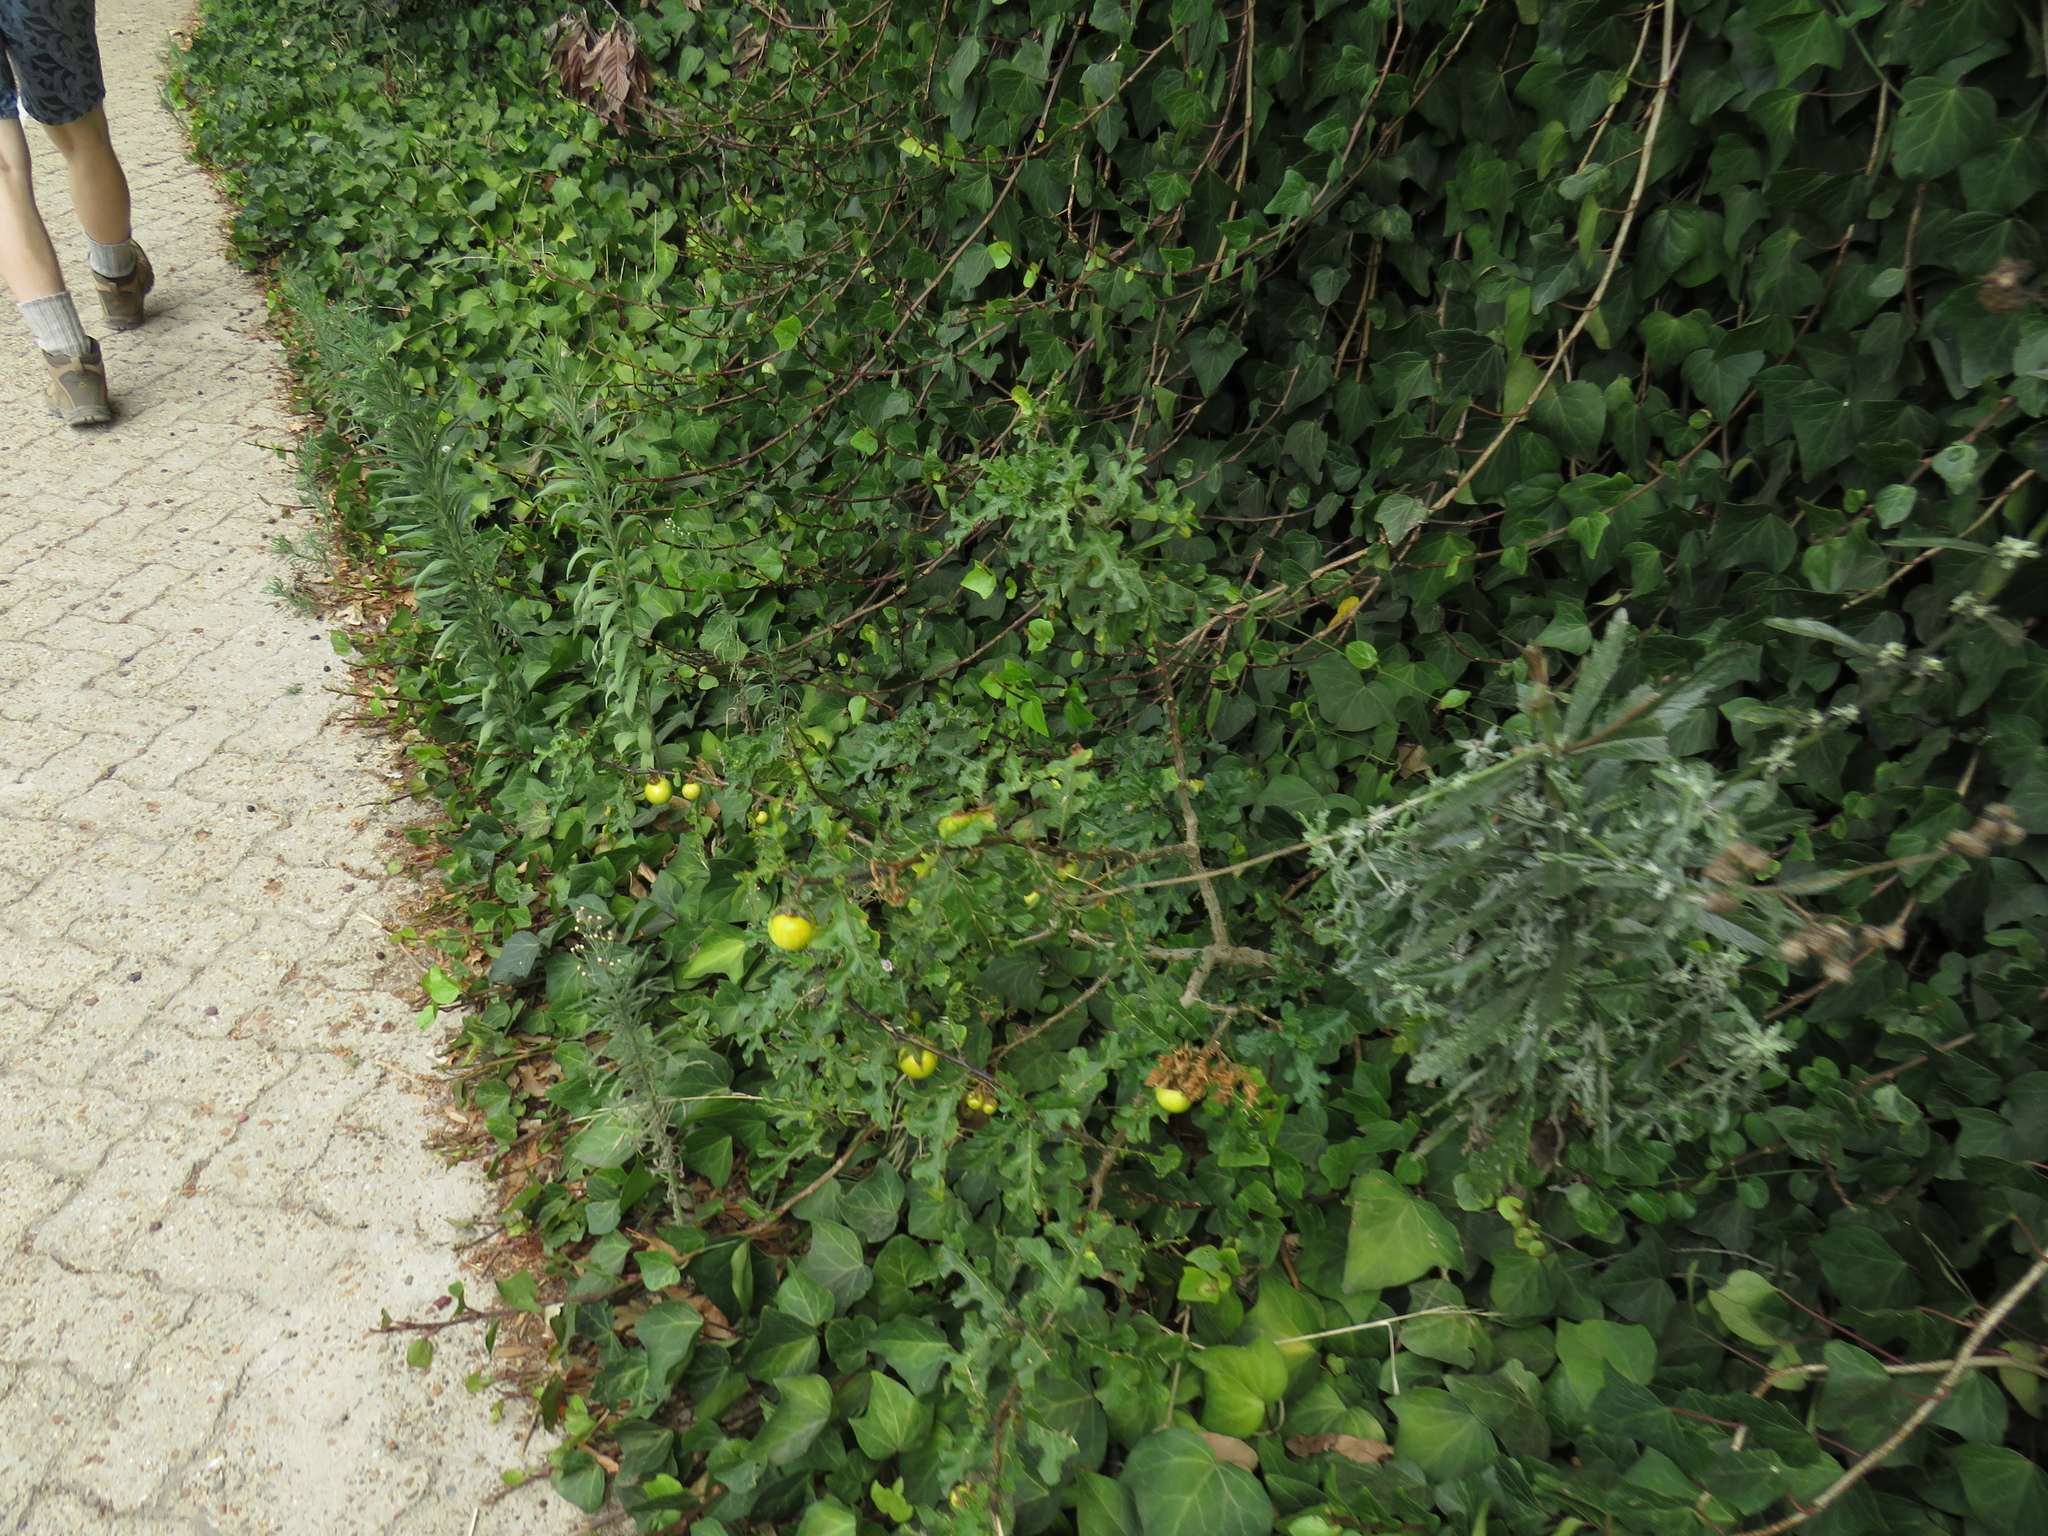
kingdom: Plantae
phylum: Tracheophyta
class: Magnoliopsida
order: Solanales
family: Solanaceae
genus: Solanum
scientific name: Solanum linnaeanum
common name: Nightshade
